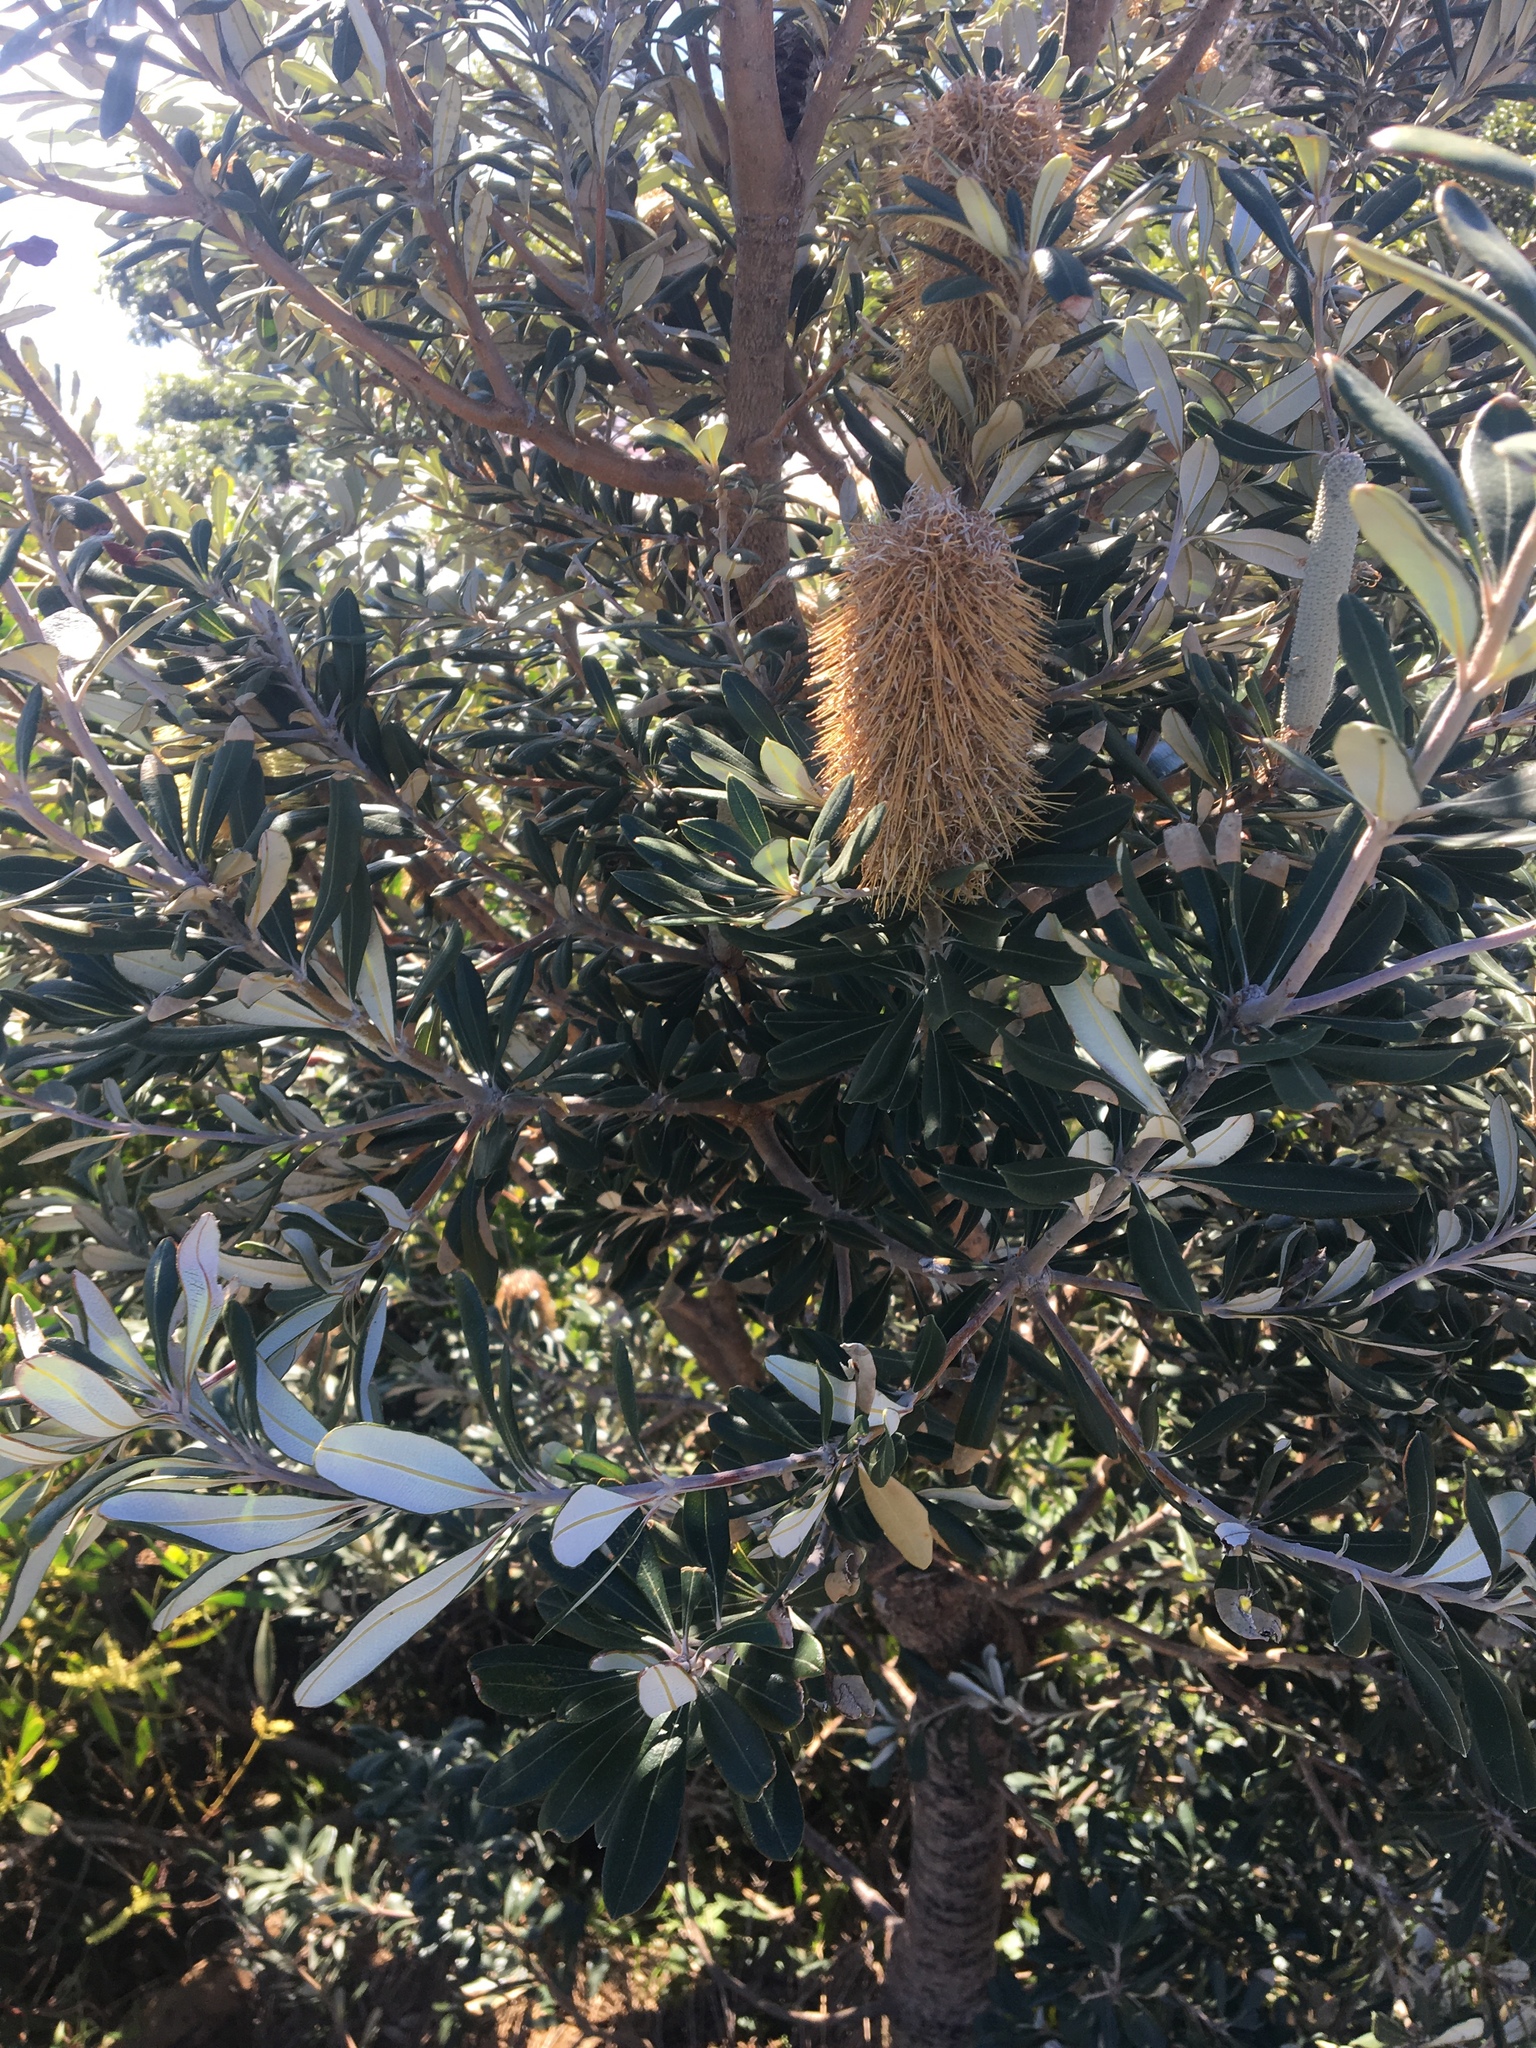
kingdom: Plantae
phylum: Tracheophyta
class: Magnoliopsida
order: Proteales
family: Proteaceae
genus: Banksia
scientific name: Banksia integrifolia
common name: White-honeysuckle
